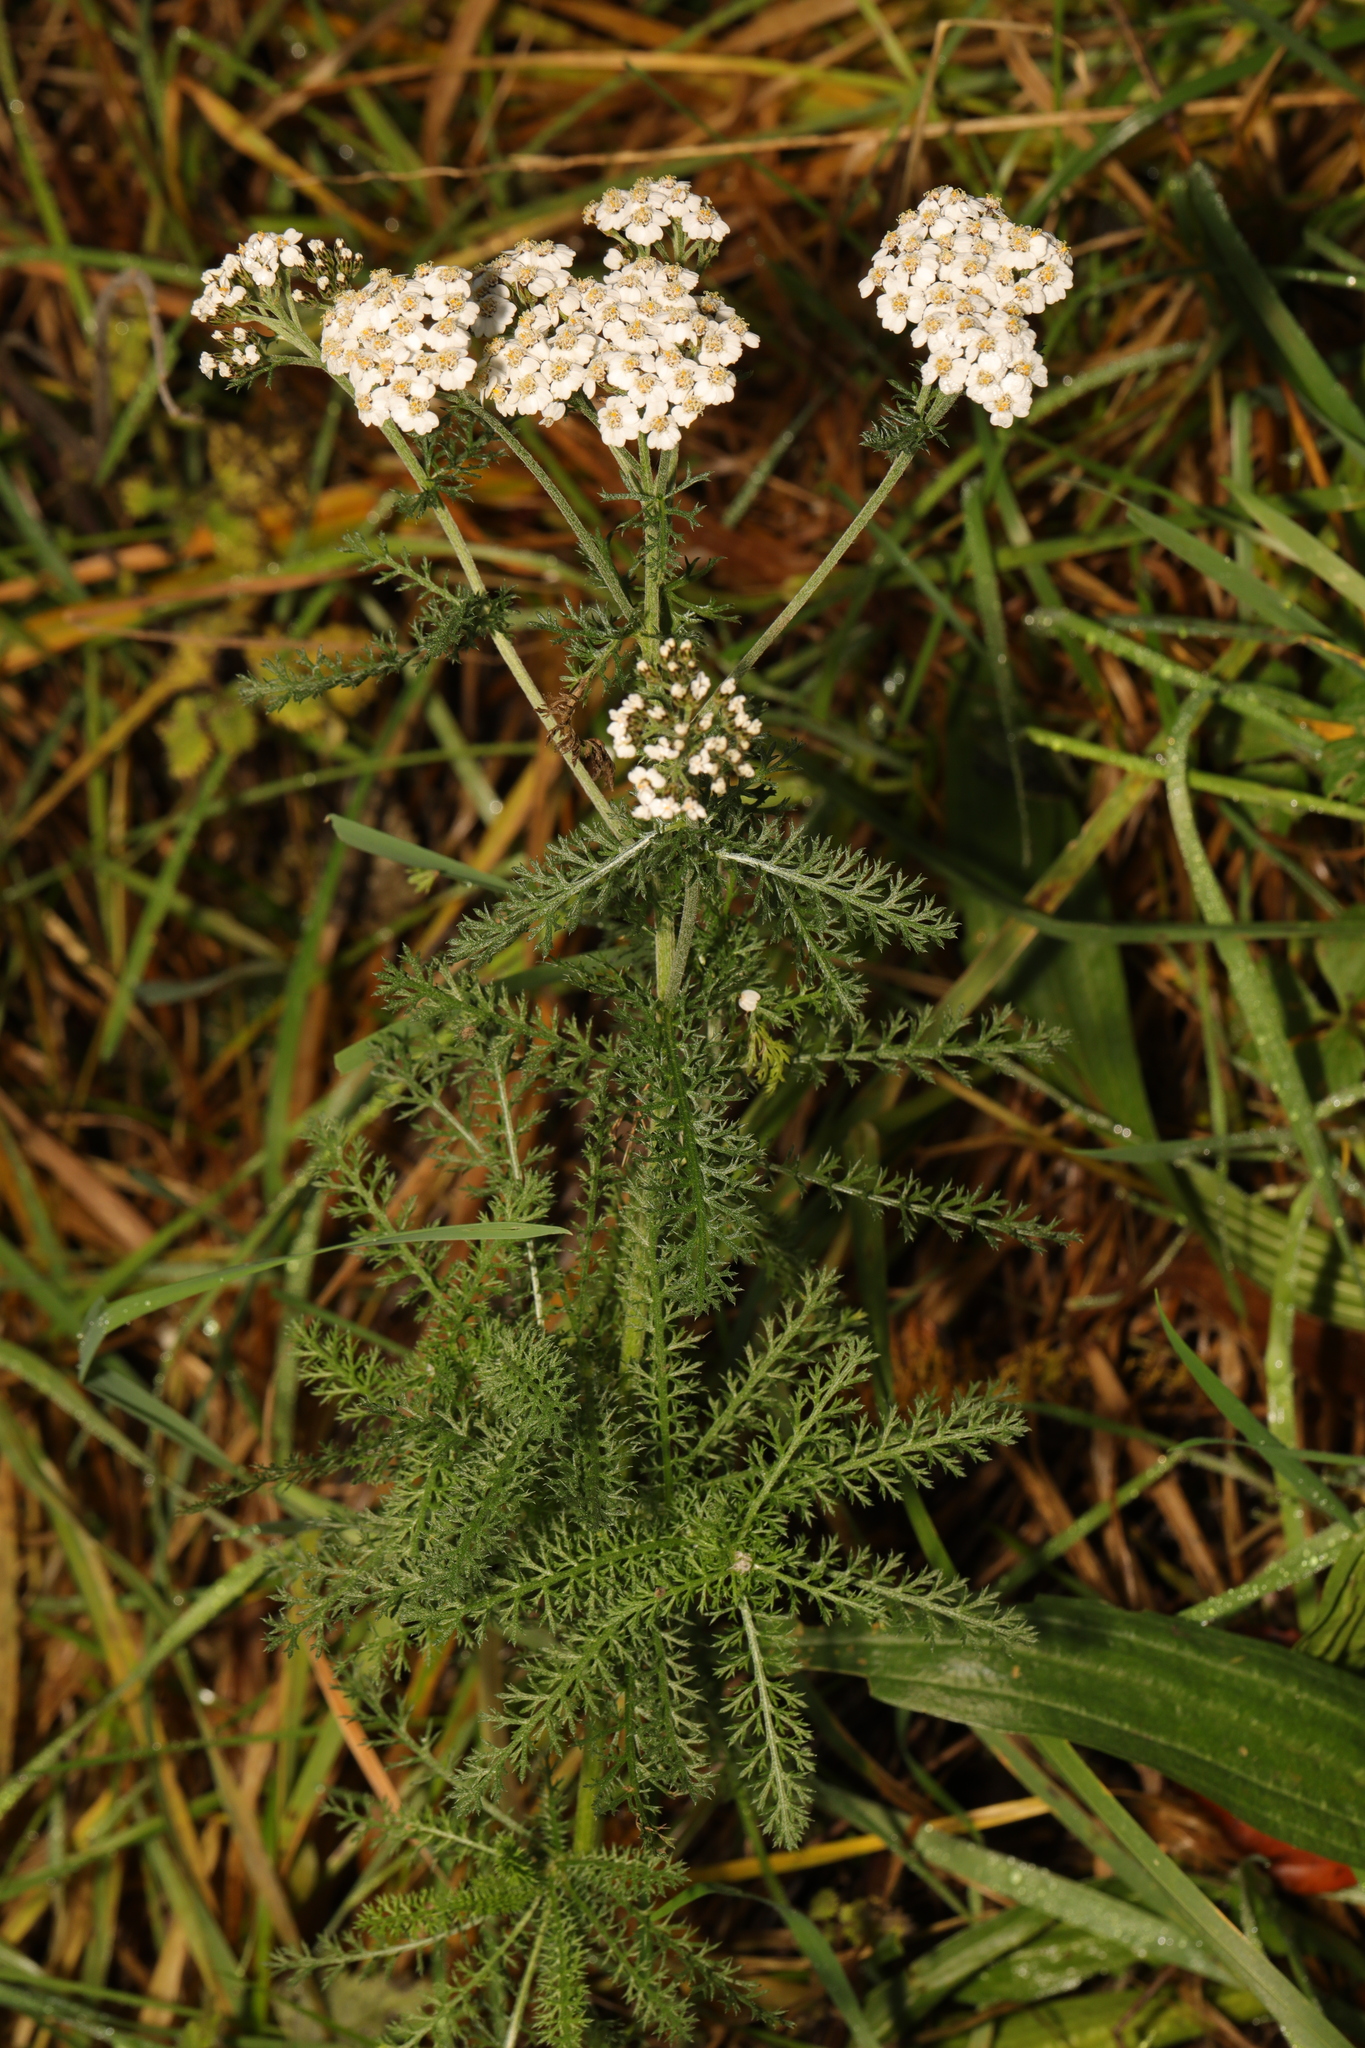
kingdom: Plantae
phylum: Tracheophyta
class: Magnoliopsida
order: Asterales
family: Asteraceae
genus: Achillea
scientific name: Achillea millefolium
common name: Yarrow
